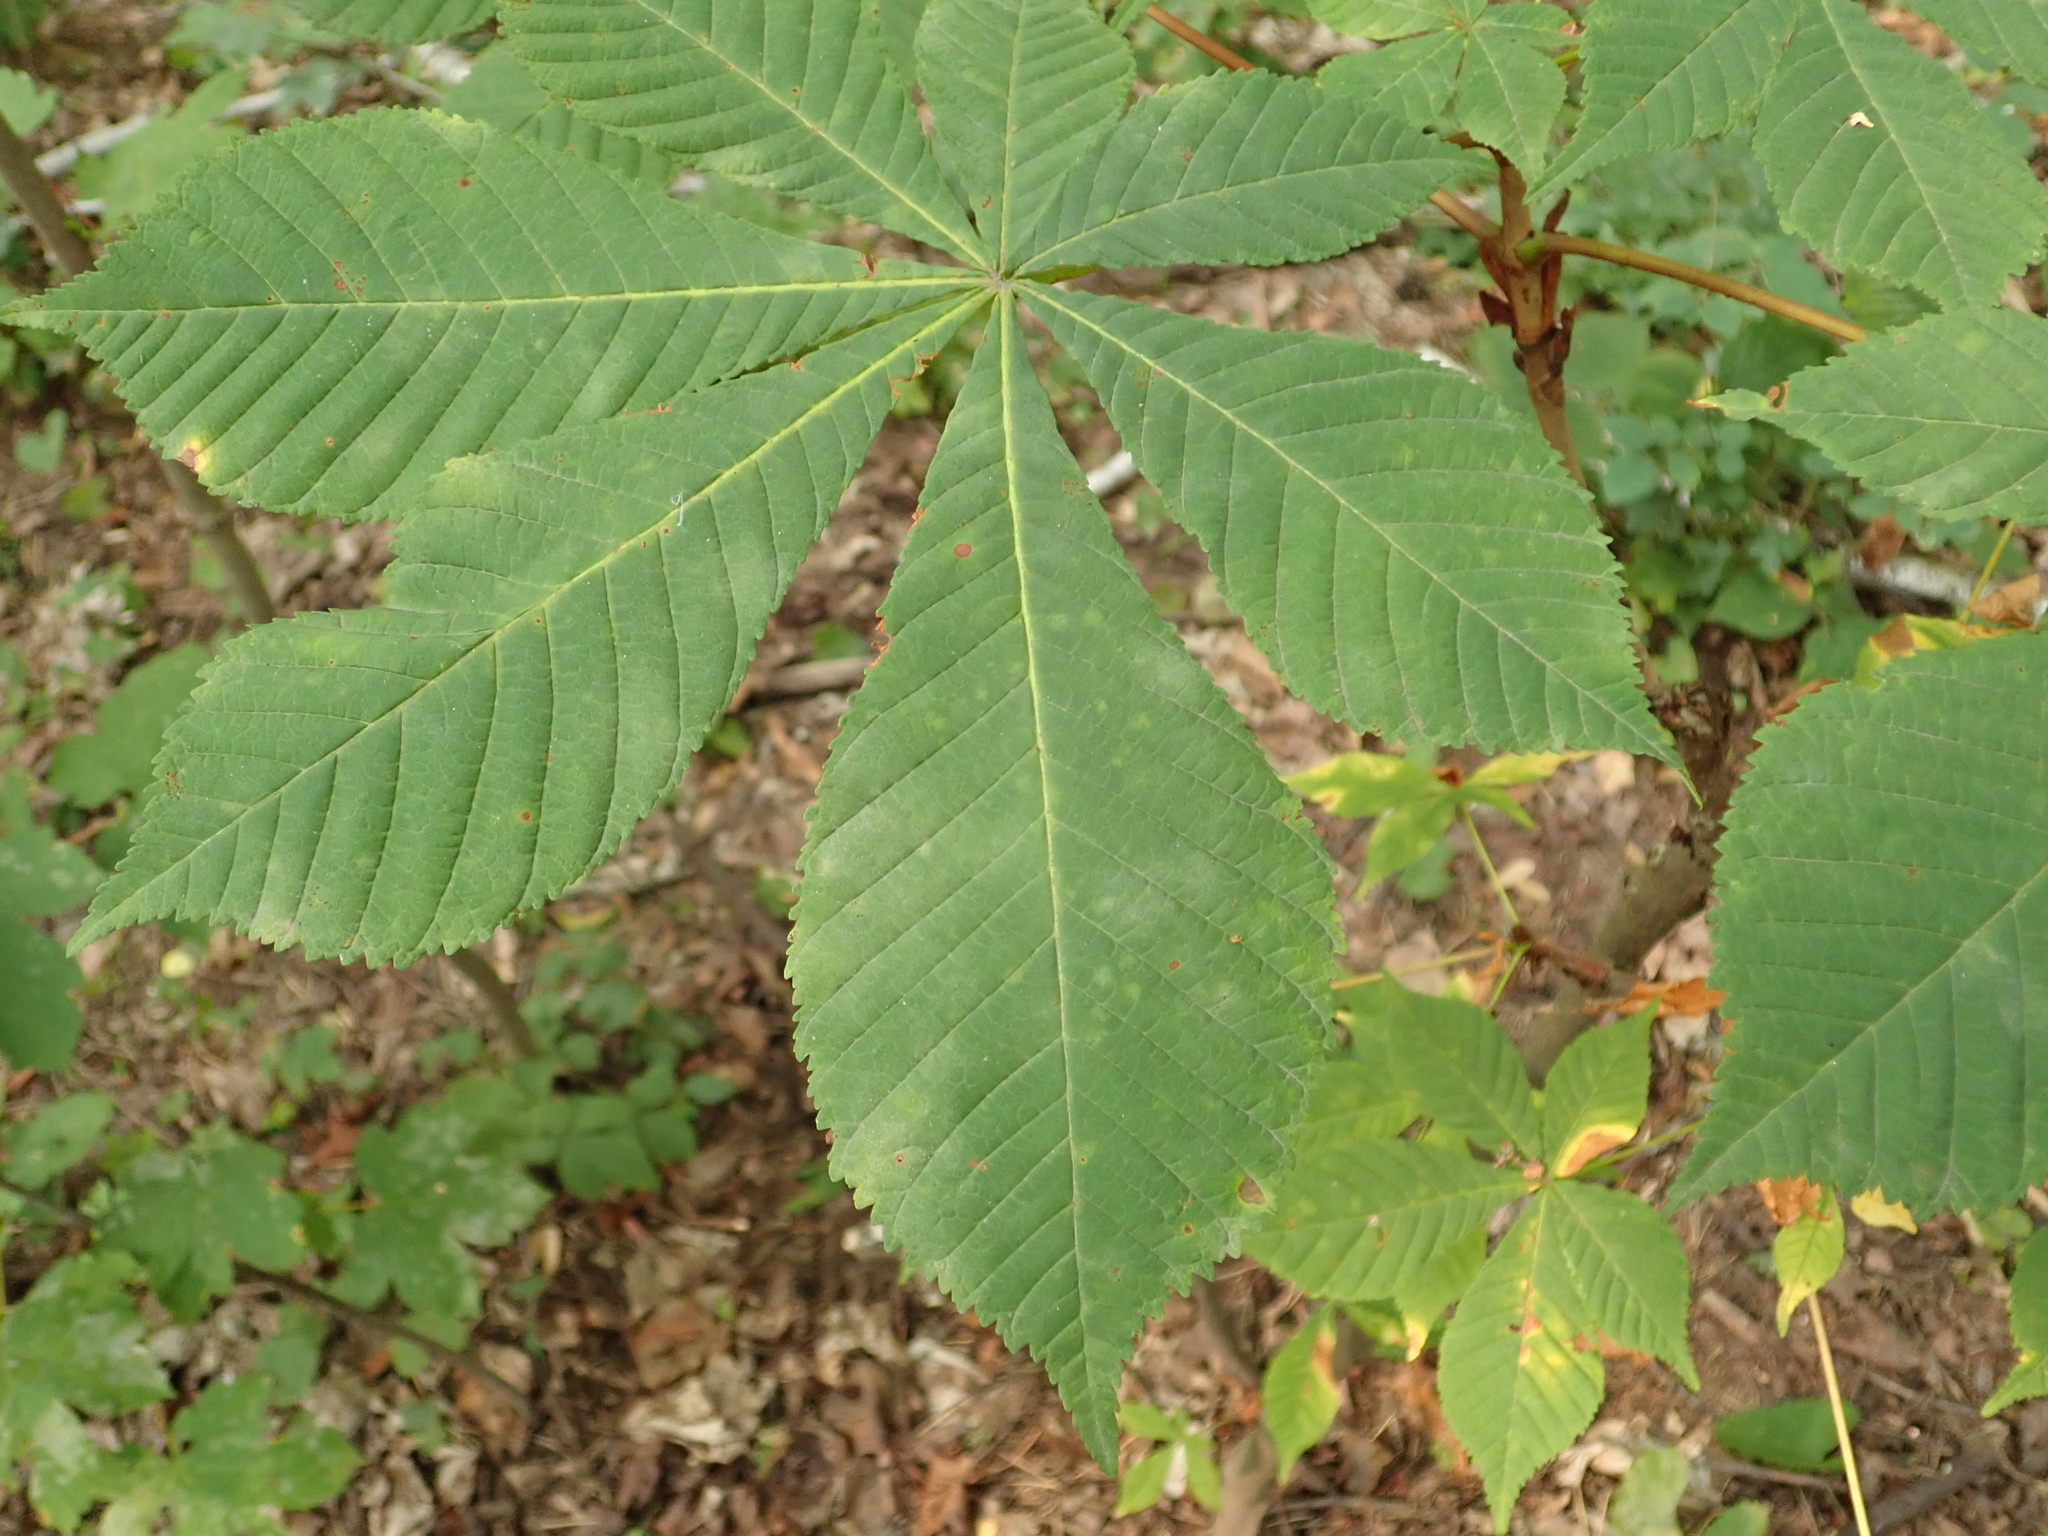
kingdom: Plantae
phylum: Tracheophyta
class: Magnoliopsida
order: Sapindales
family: Sapindaceae
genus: Aesculus
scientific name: Aesculus hippocastanum
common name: Horse-chestnut
